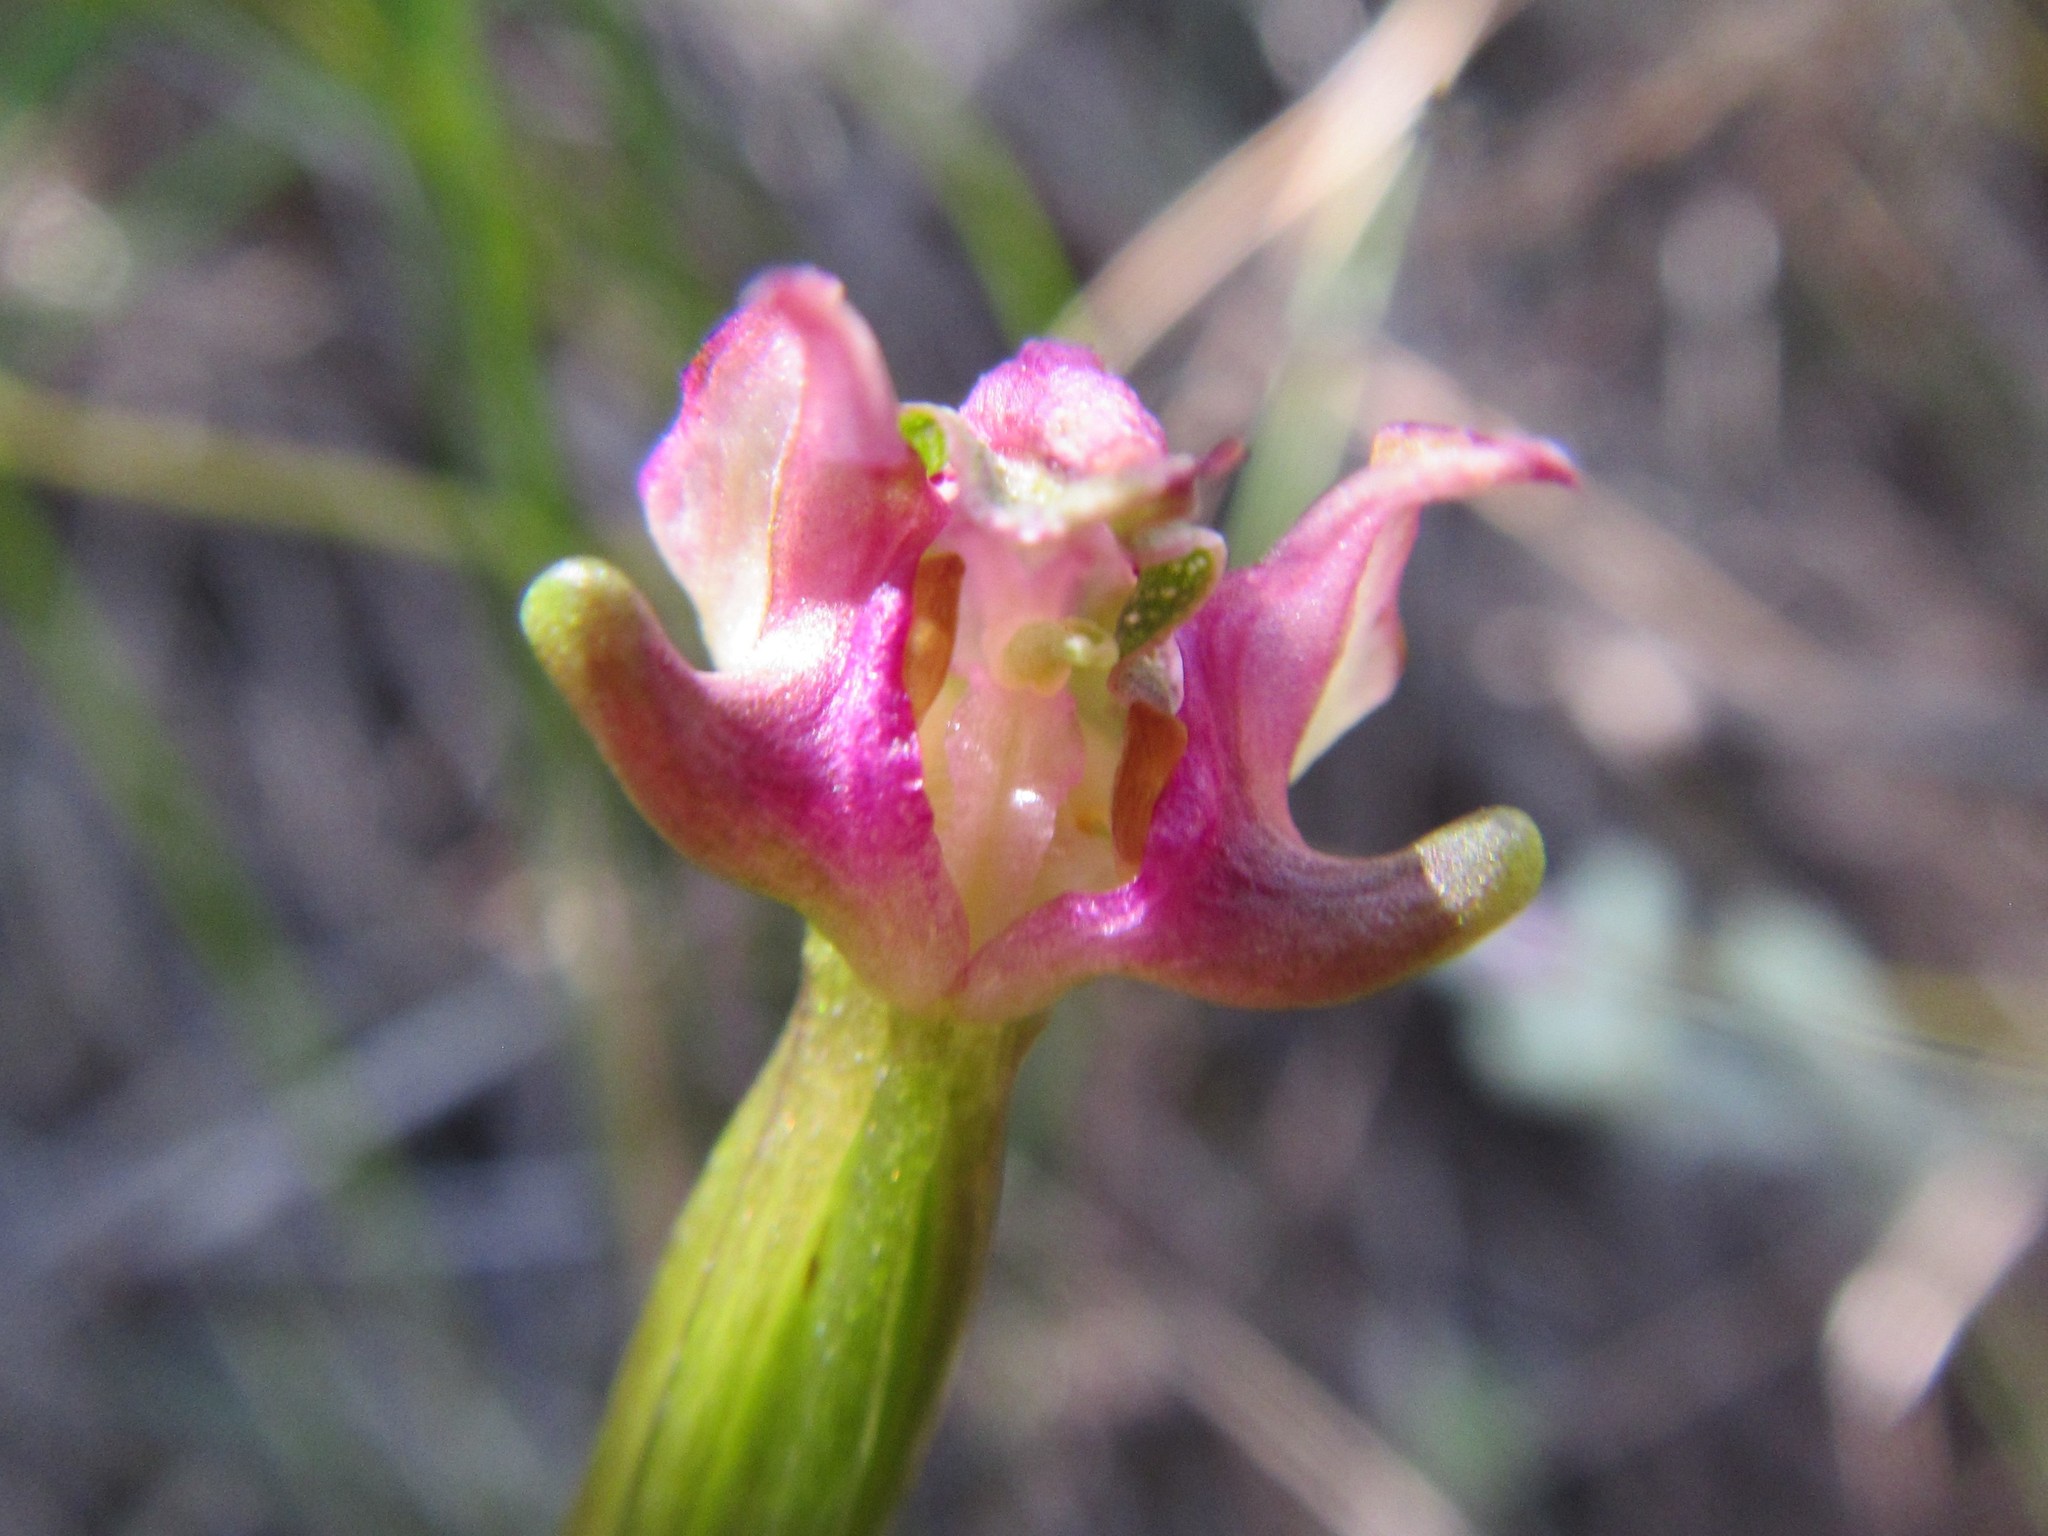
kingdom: Plantae
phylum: Tracheophyta
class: Liliopsida
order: Asparagales
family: Orchidaceae
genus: Disperis
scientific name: Disperis paludosa
